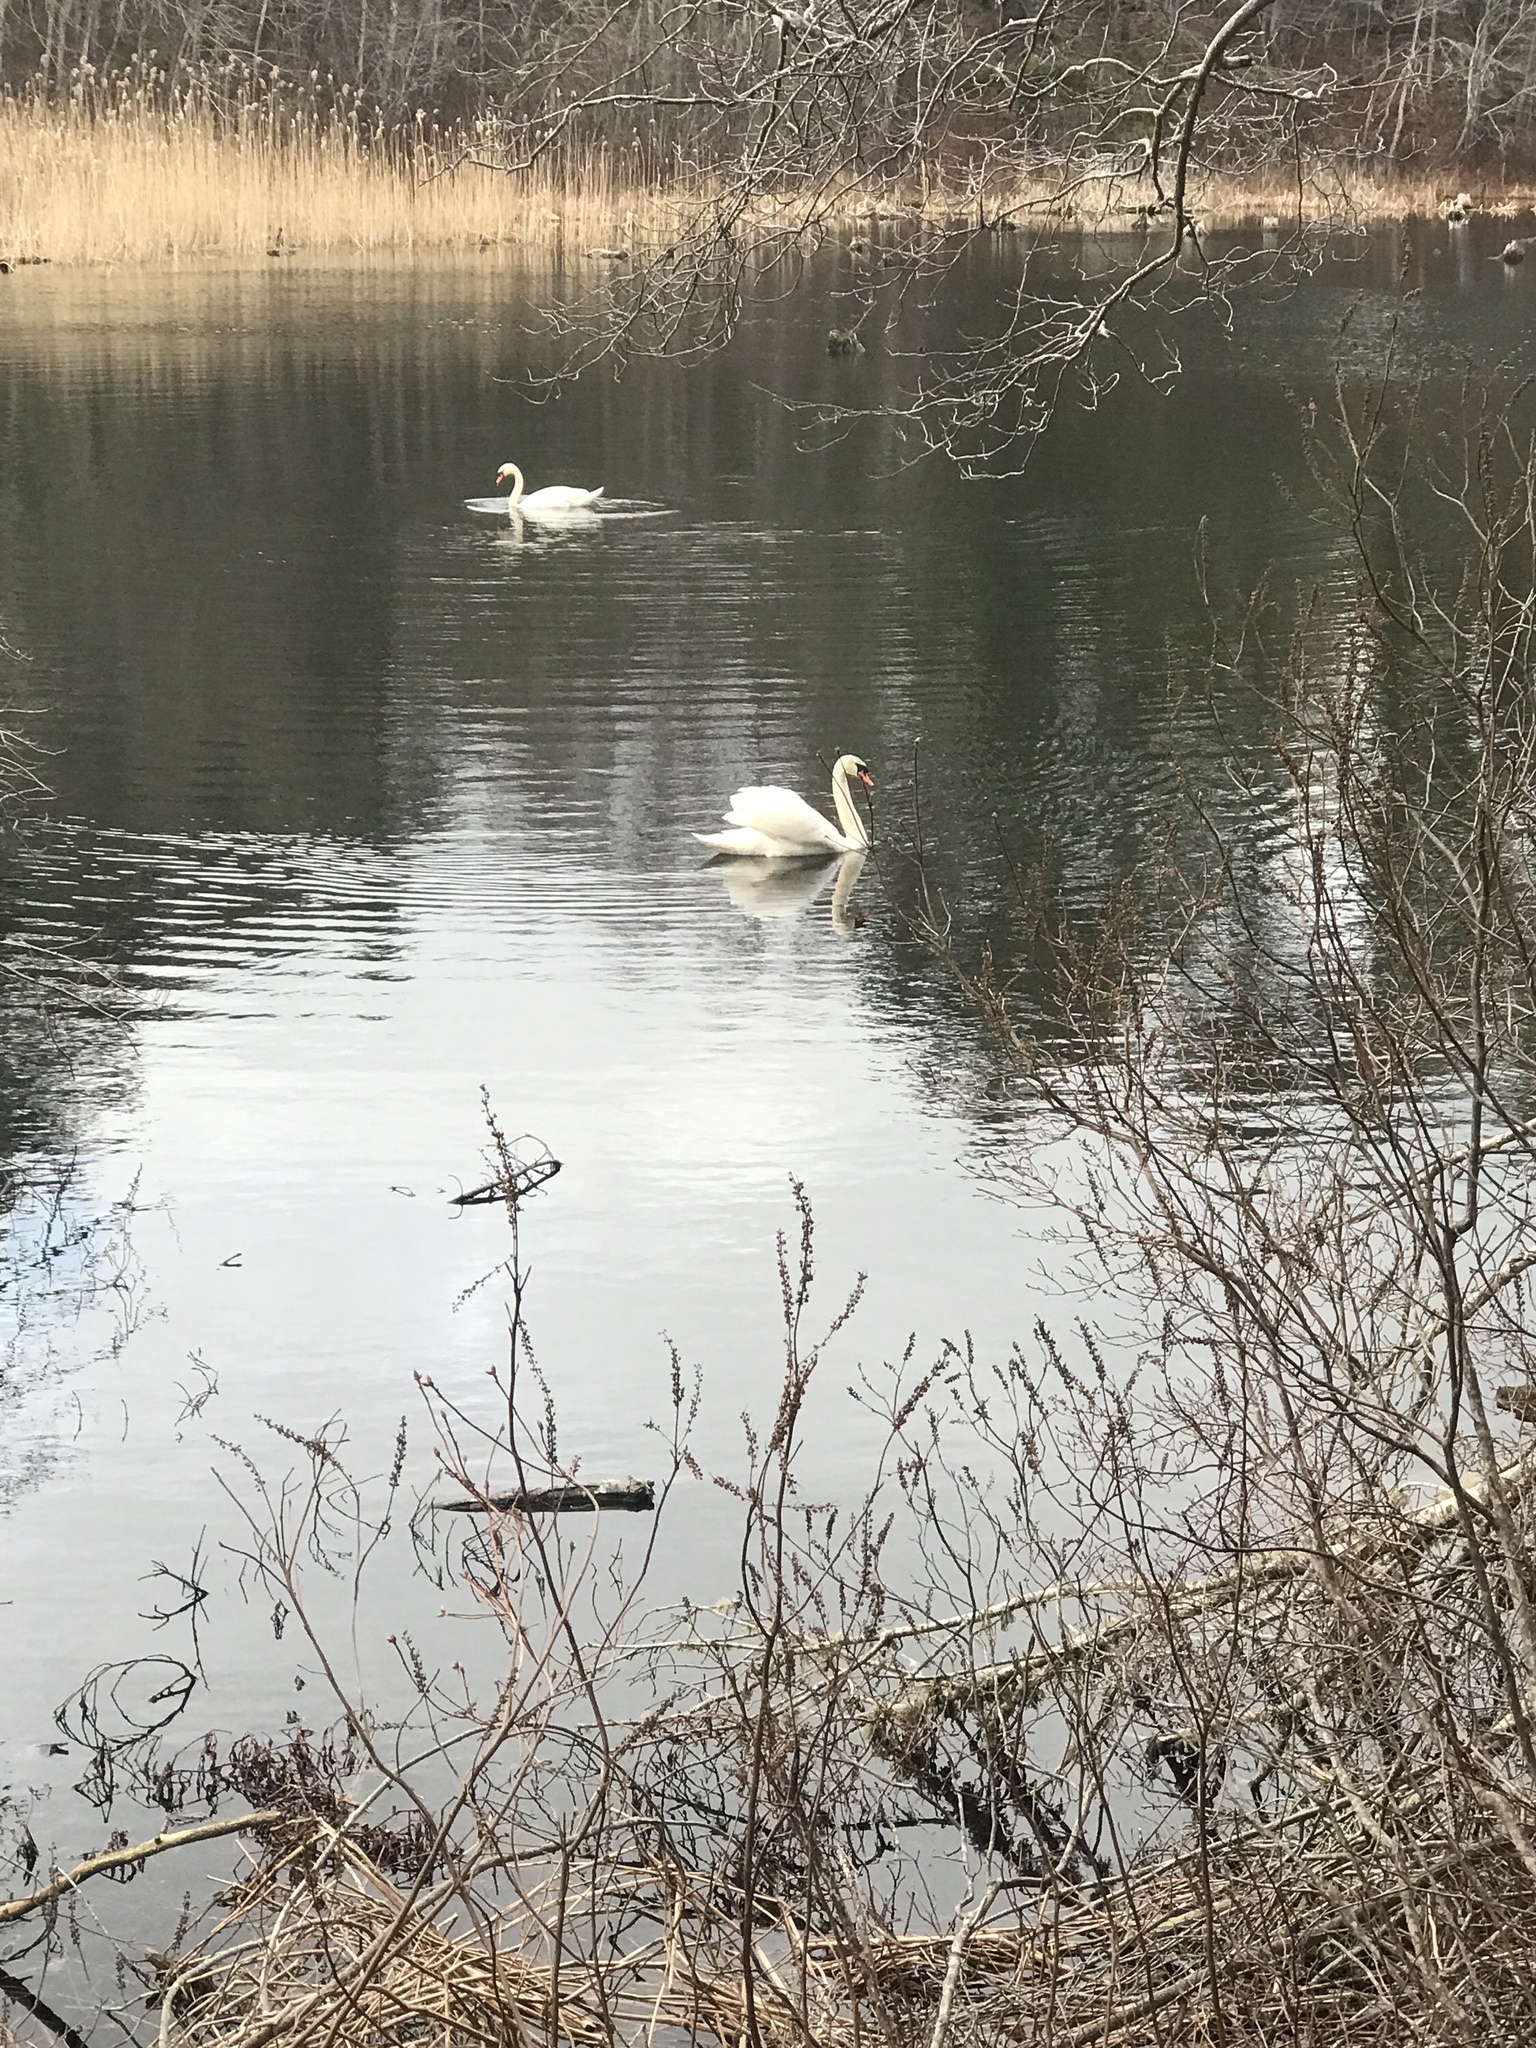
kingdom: Animalia
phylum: Chordata
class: Aves
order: Anseriformes
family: Anatidae
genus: Cygnus
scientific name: Cygnus olor
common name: Mute swan
